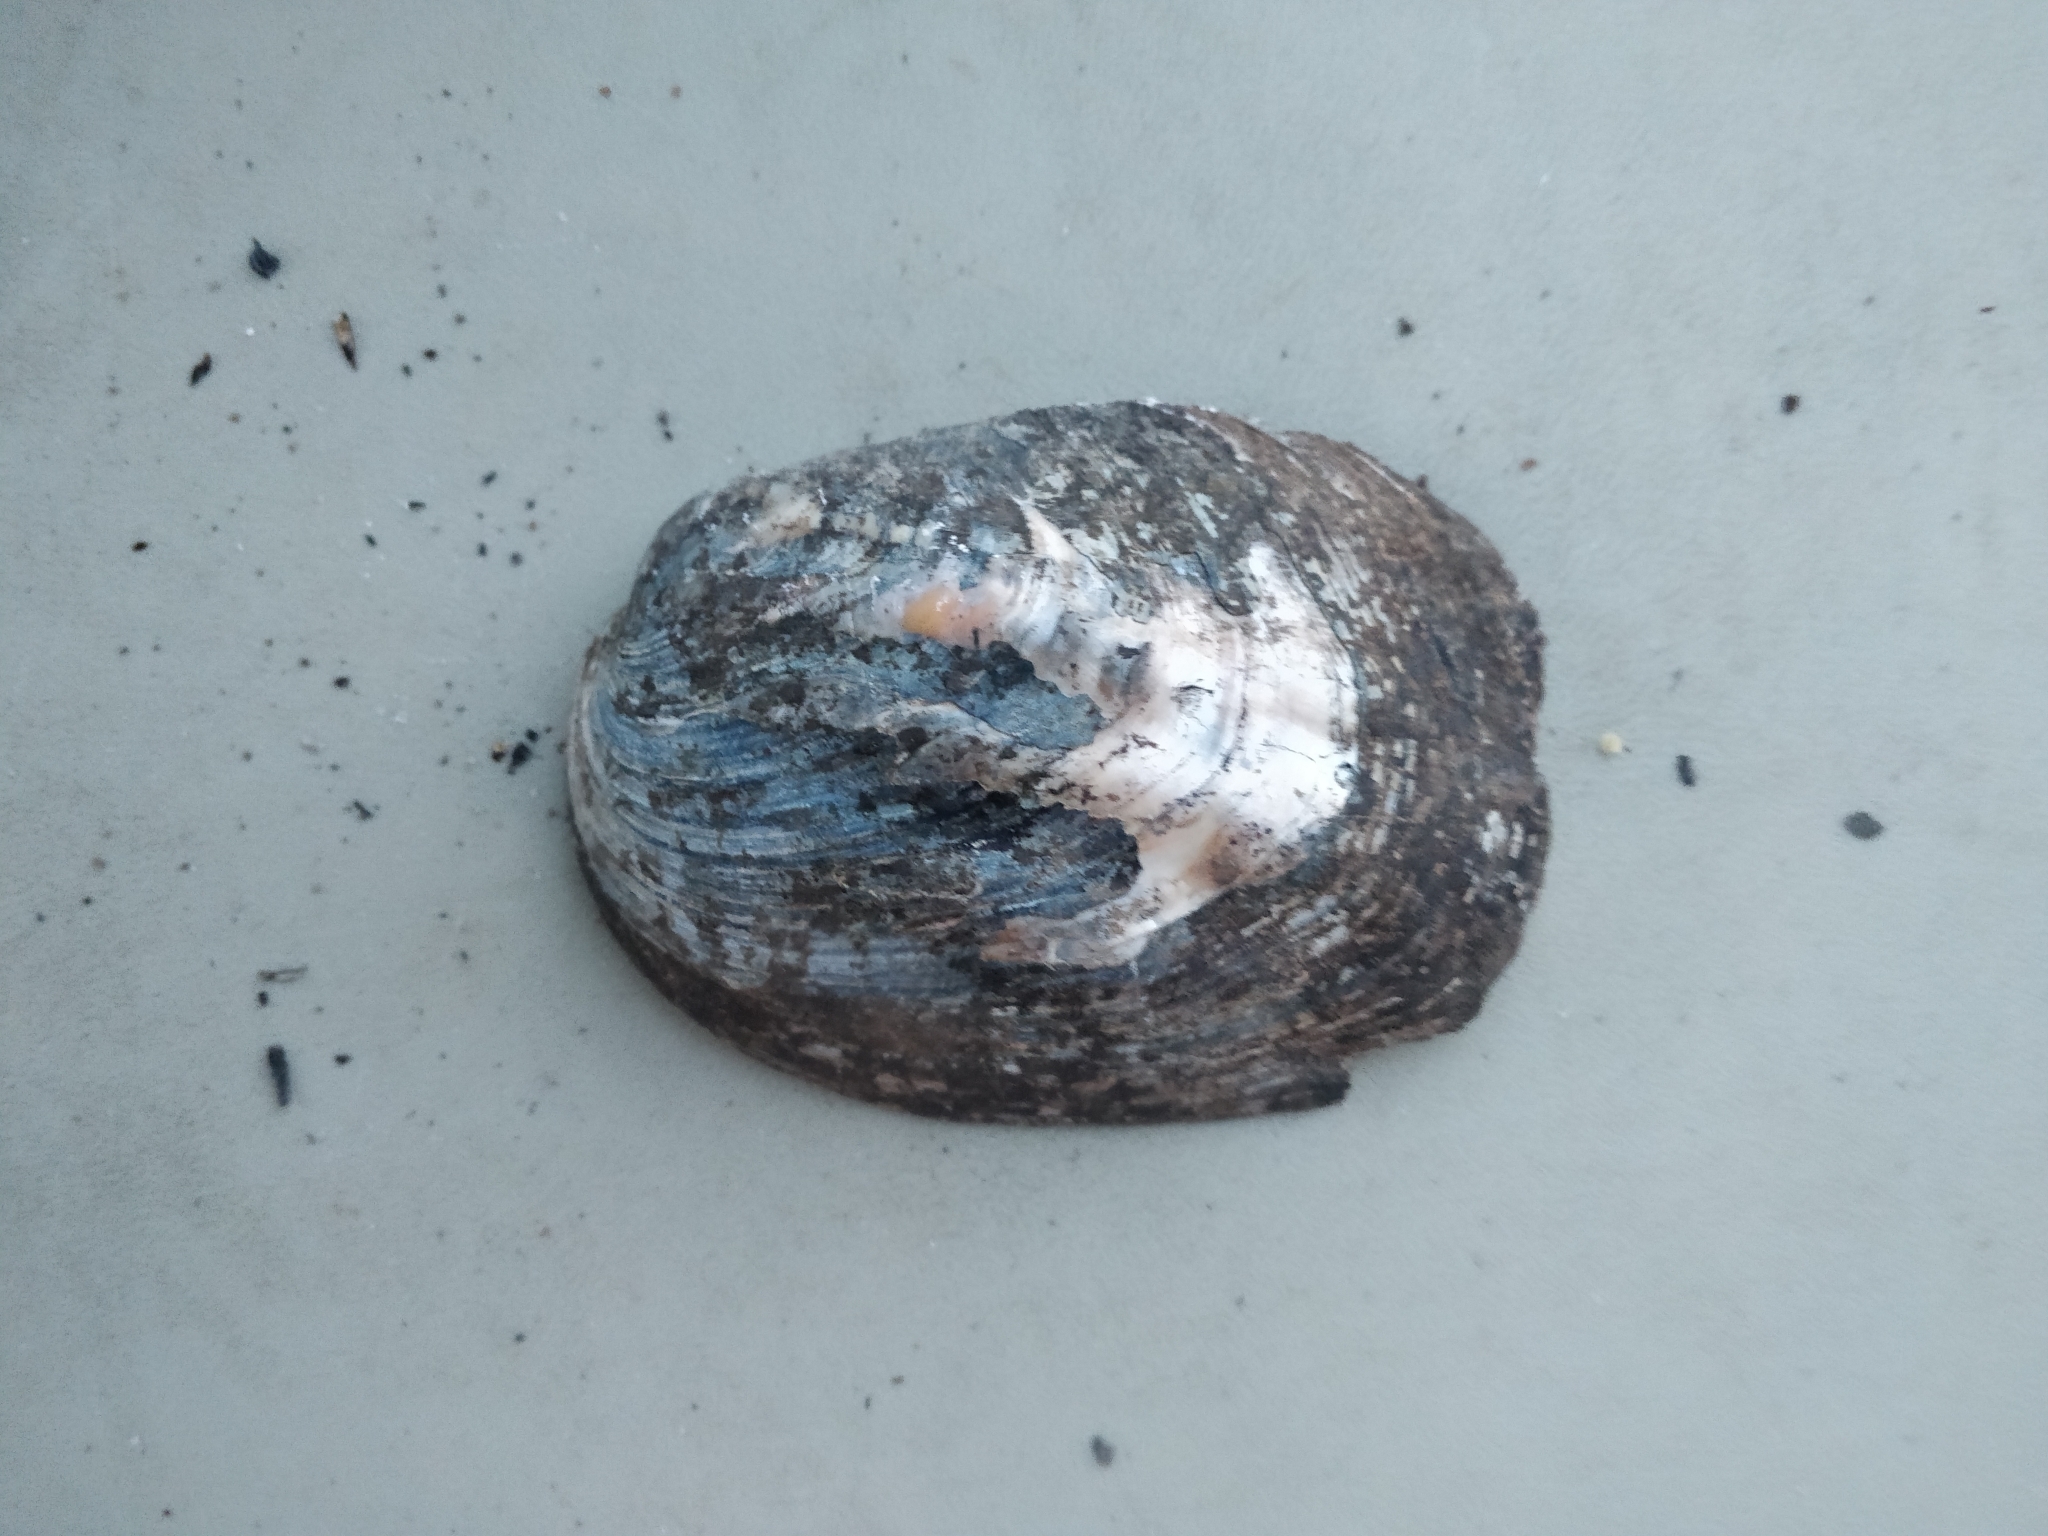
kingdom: Animalia
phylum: Mollusca
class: Bivalvia
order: Unionida
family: Unionidae
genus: Amblema
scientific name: Amblema plicata
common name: Threeridge
